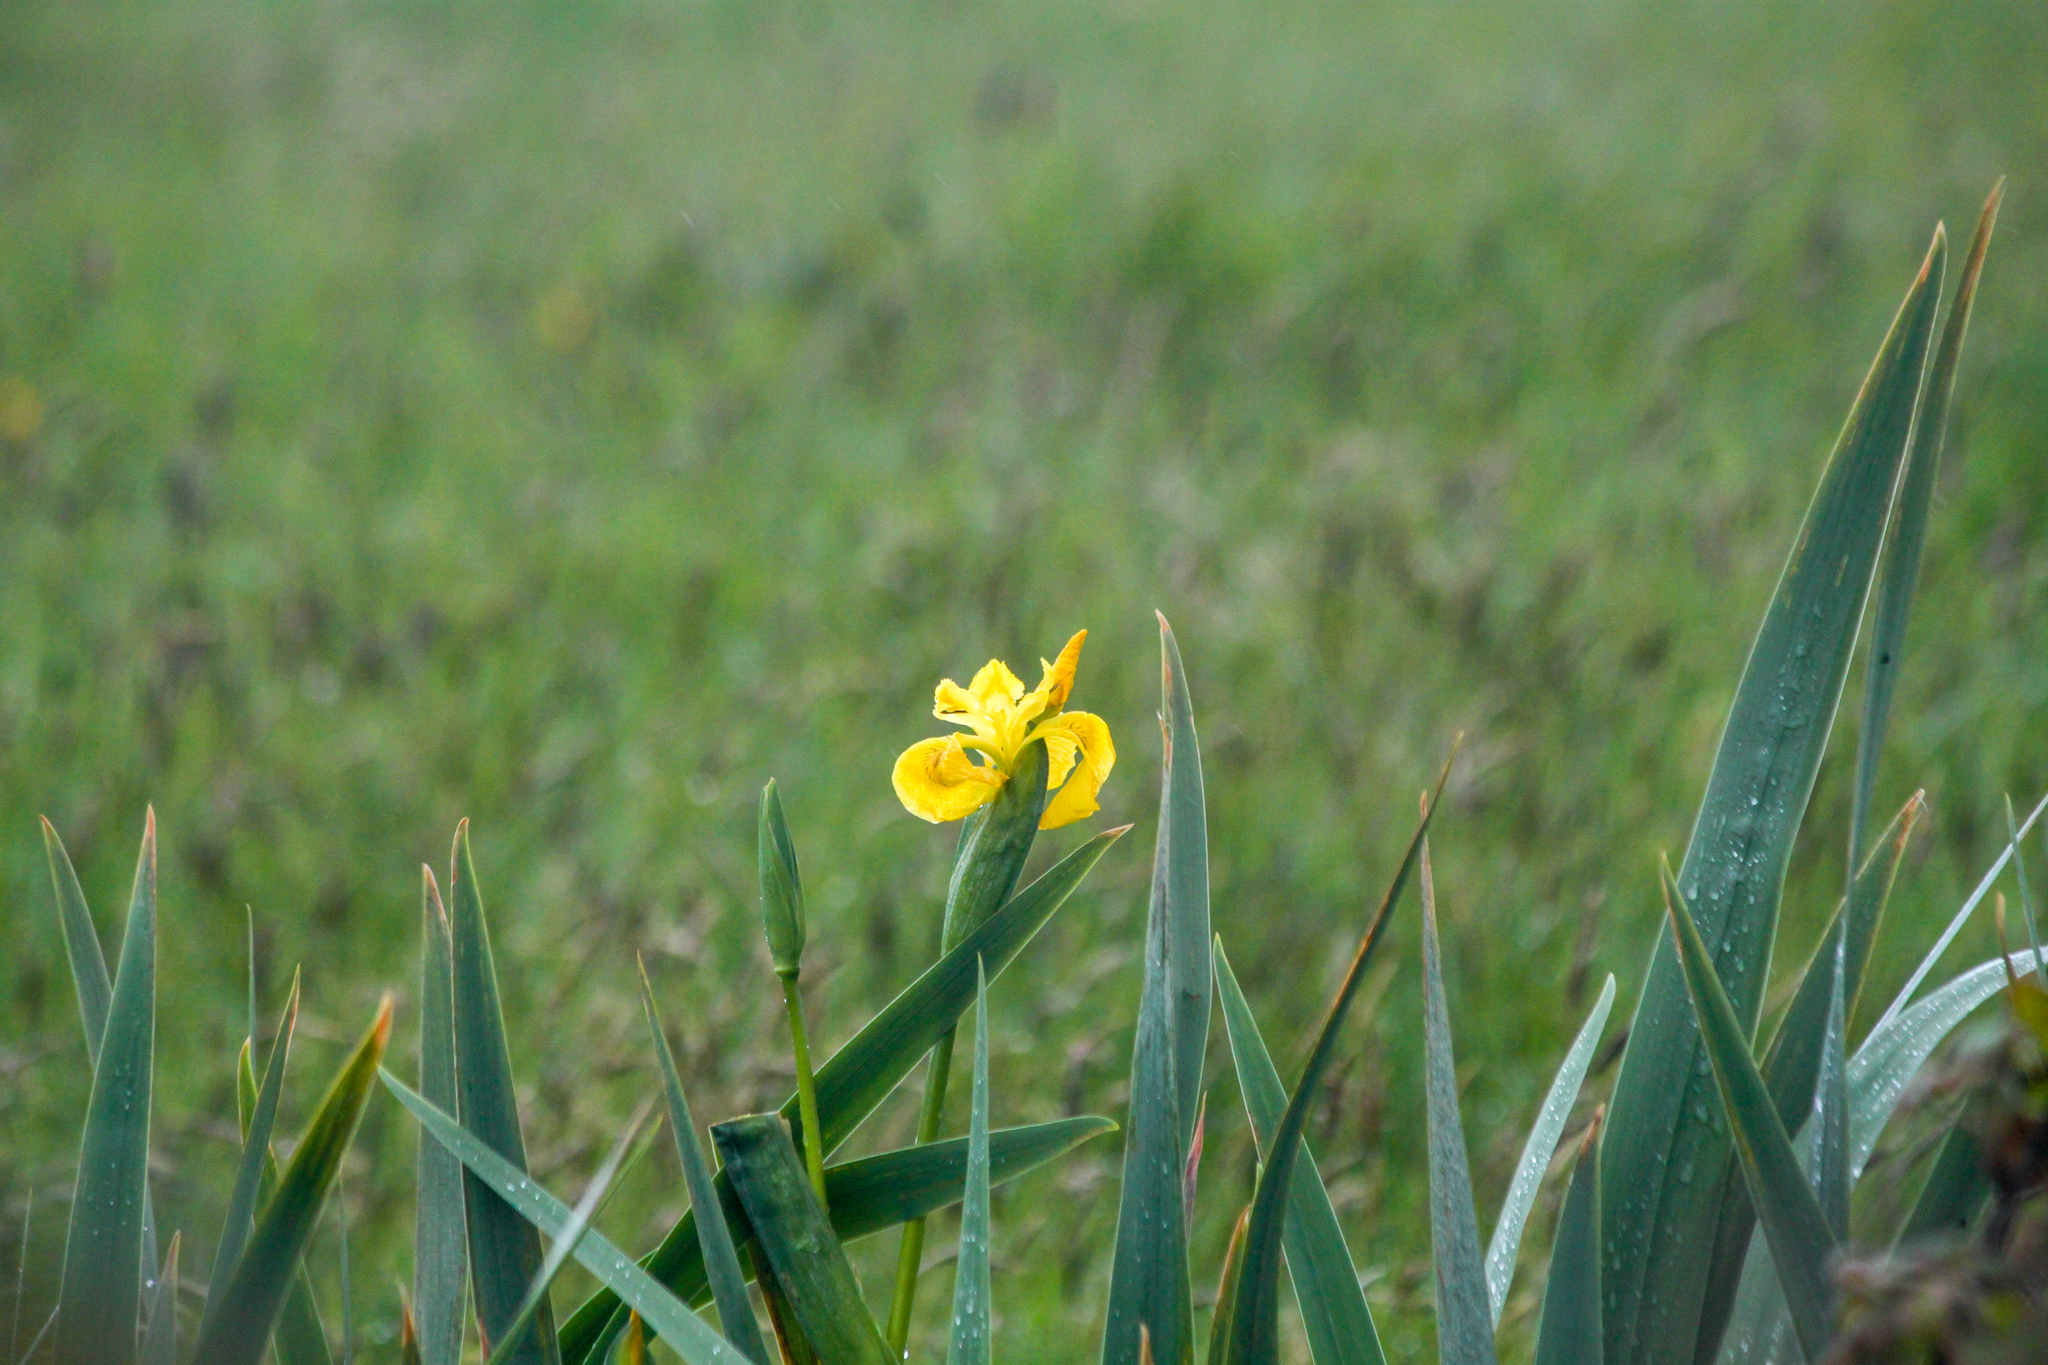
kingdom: Plantae
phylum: Tracheophyta
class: Liliopsida
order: Asparagales
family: Iridaceae
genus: Iris
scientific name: Iris pseudacorus
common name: Yellow flag
